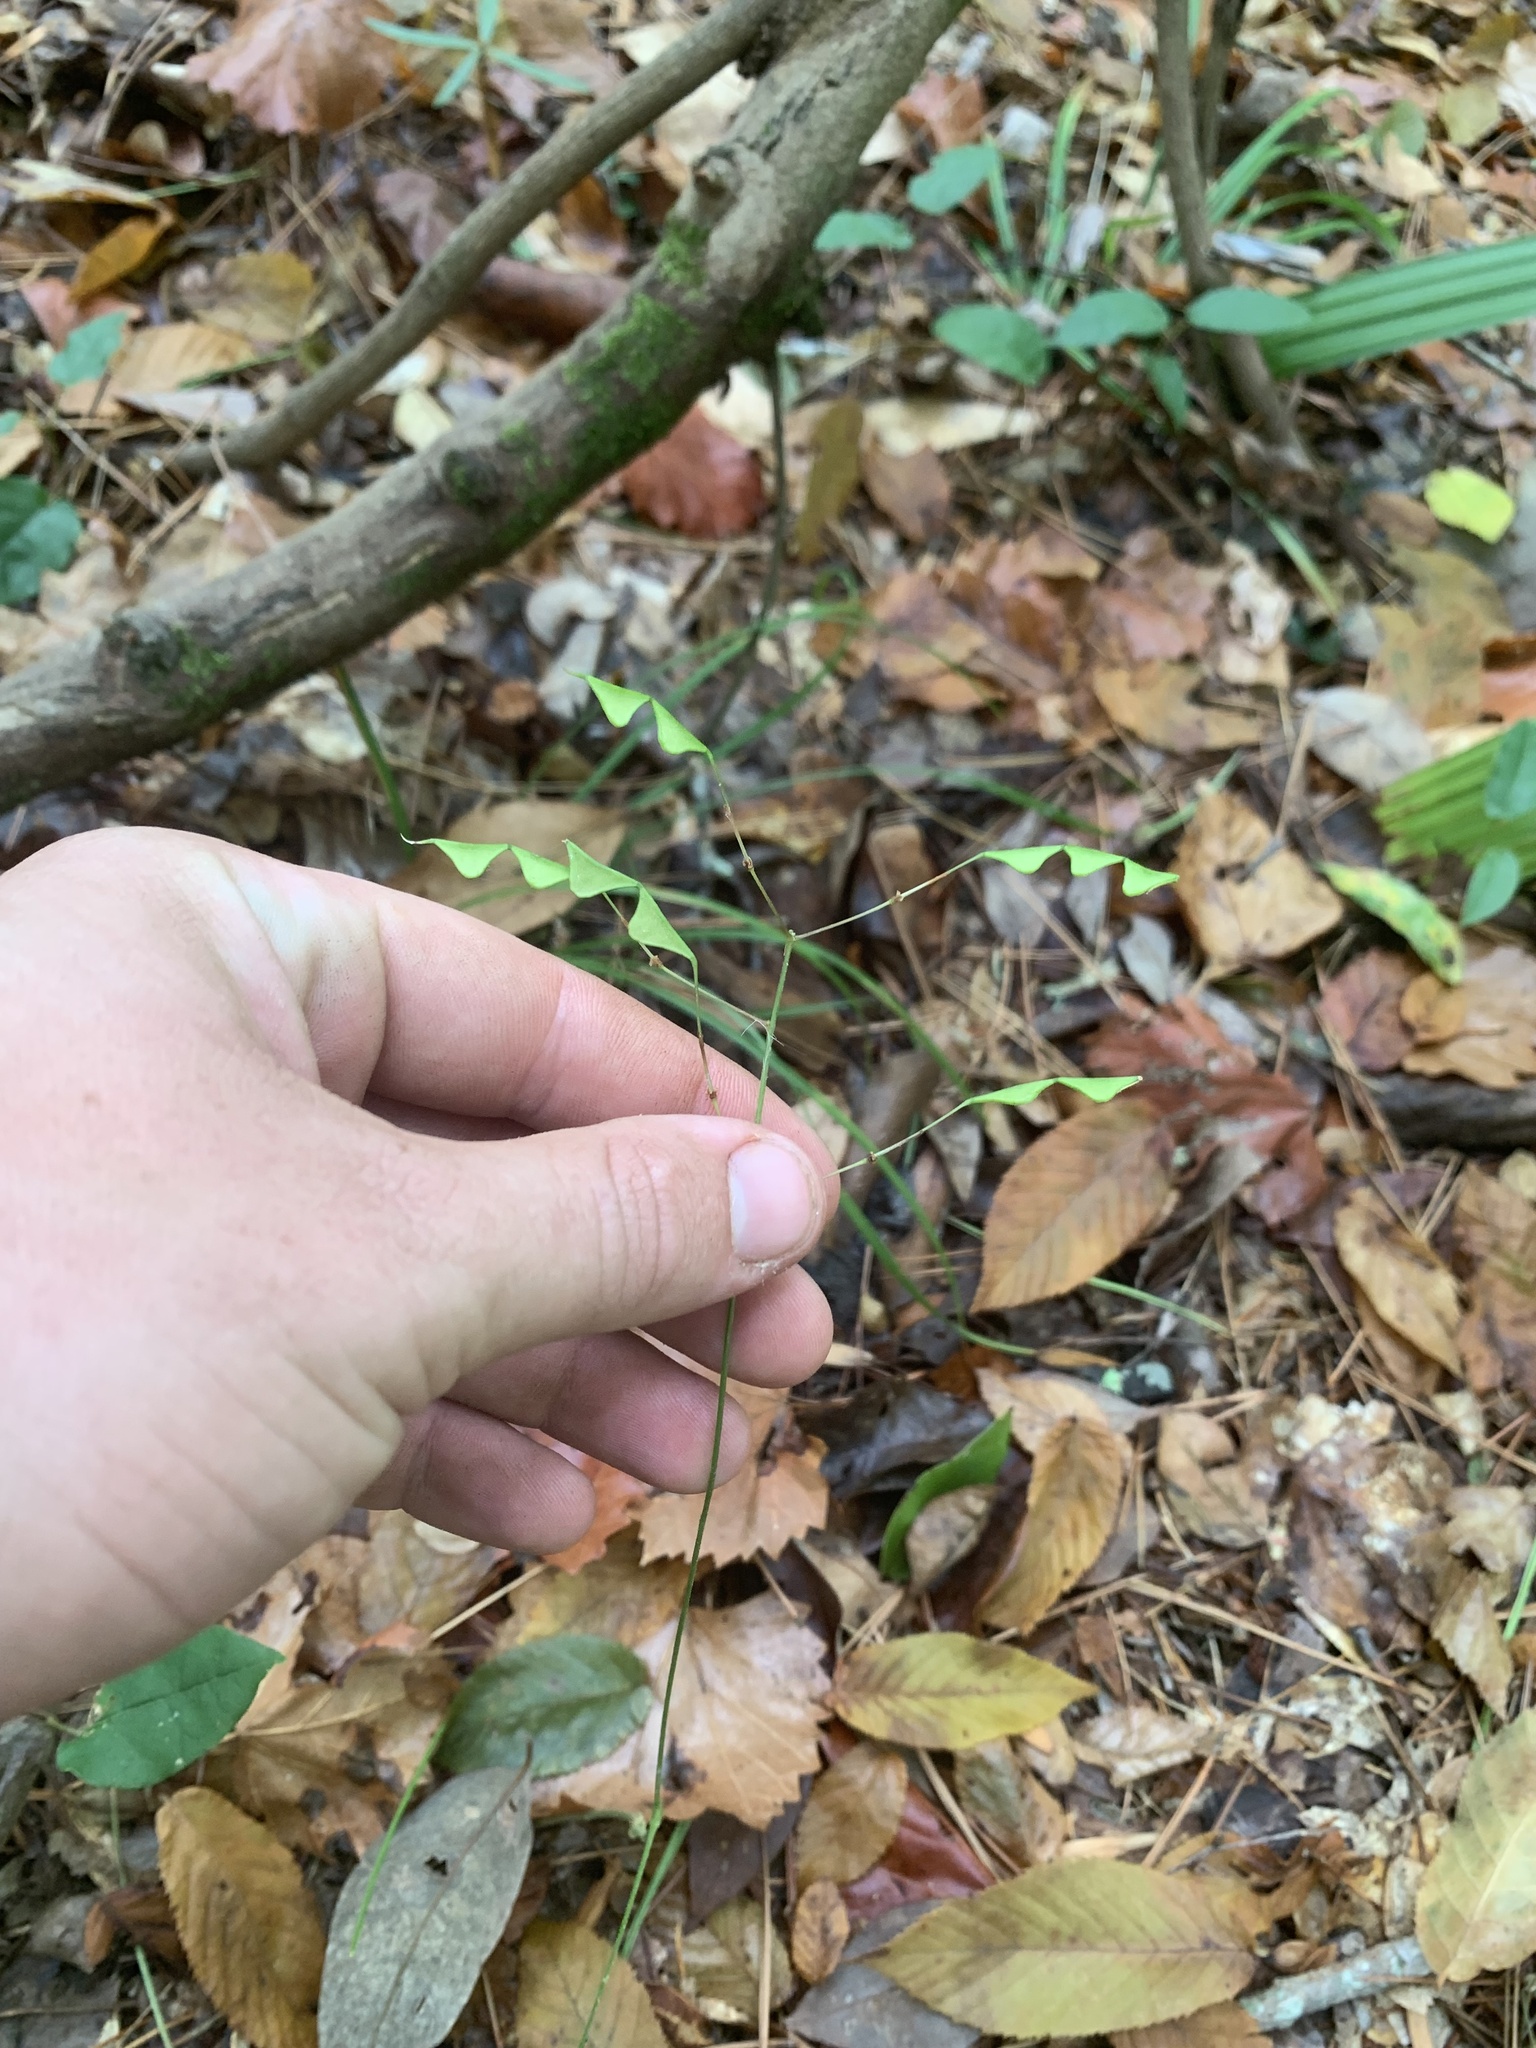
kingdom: Plantae
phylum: Tracheophyta
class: Magnoliopsida
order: Fabales
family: Fabaceae
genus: Hylodesmum
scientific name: Hylodesmum nudiflorum
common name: Bare-stemmed tick-trefoil
